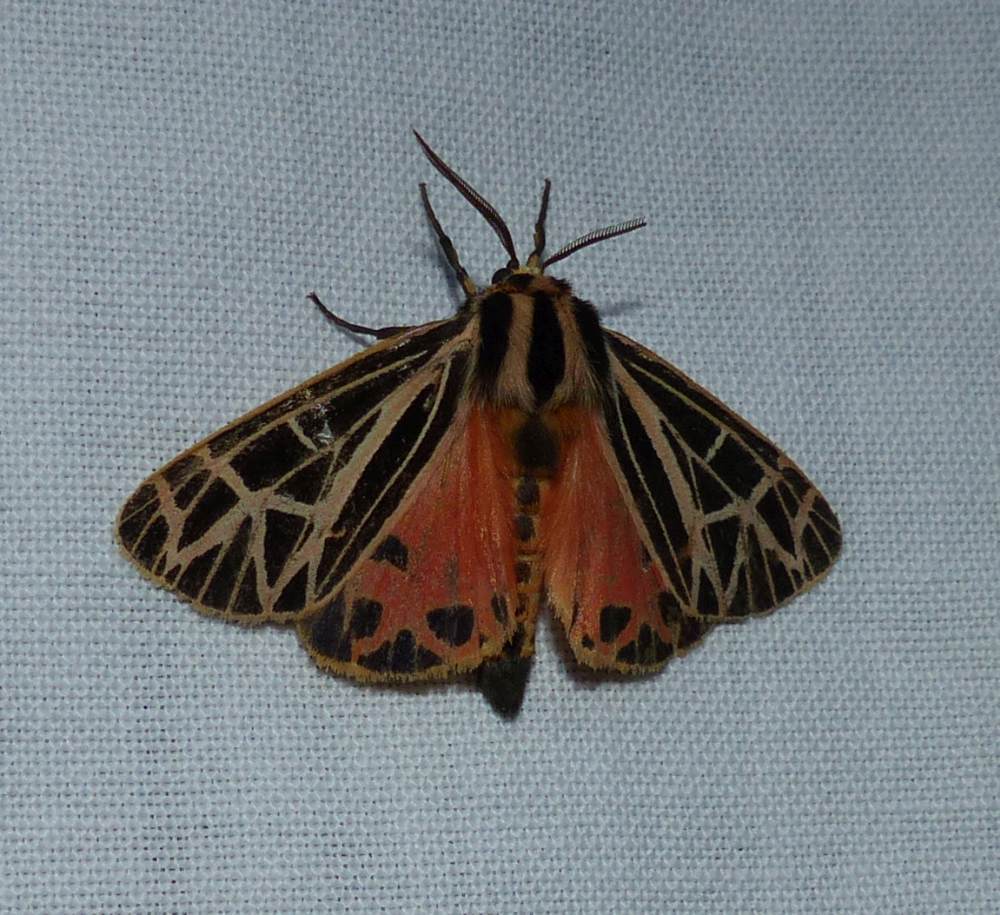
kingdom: Animalia
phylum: Arthropoda
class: Insecta
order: Lepidoptera
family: Erebidae
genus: Grammia
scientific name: Grammia parthenice
